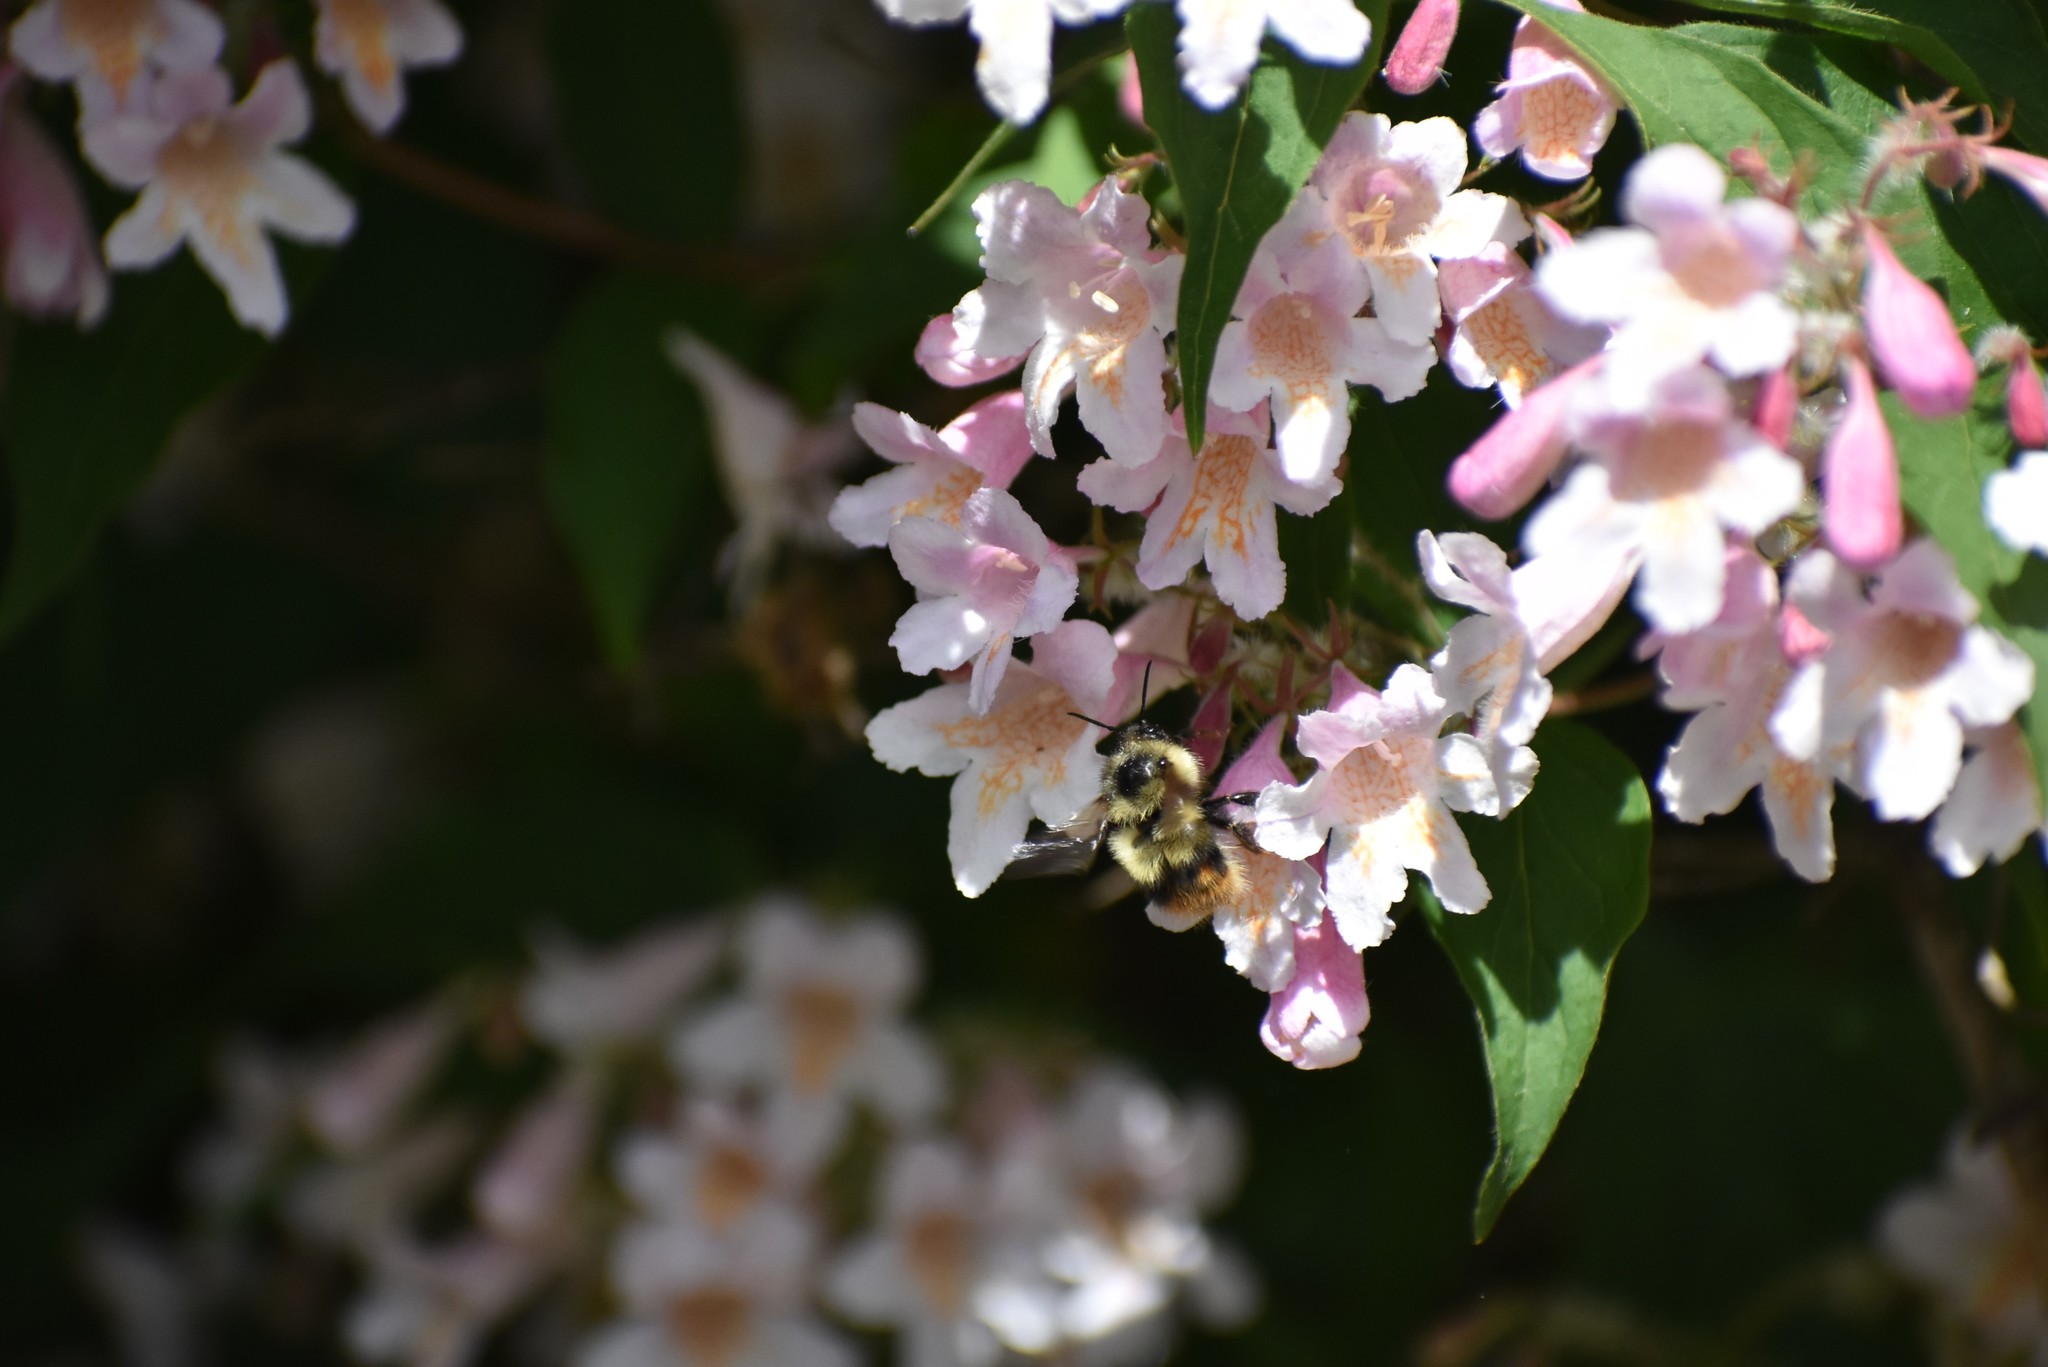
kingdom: Animalia
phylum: Arthropoda
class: Insecta
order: Hymenoptera
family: Apidae
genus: Bombus
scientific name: Bombus mixtus
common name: Fuzzy-horned bumble bee
